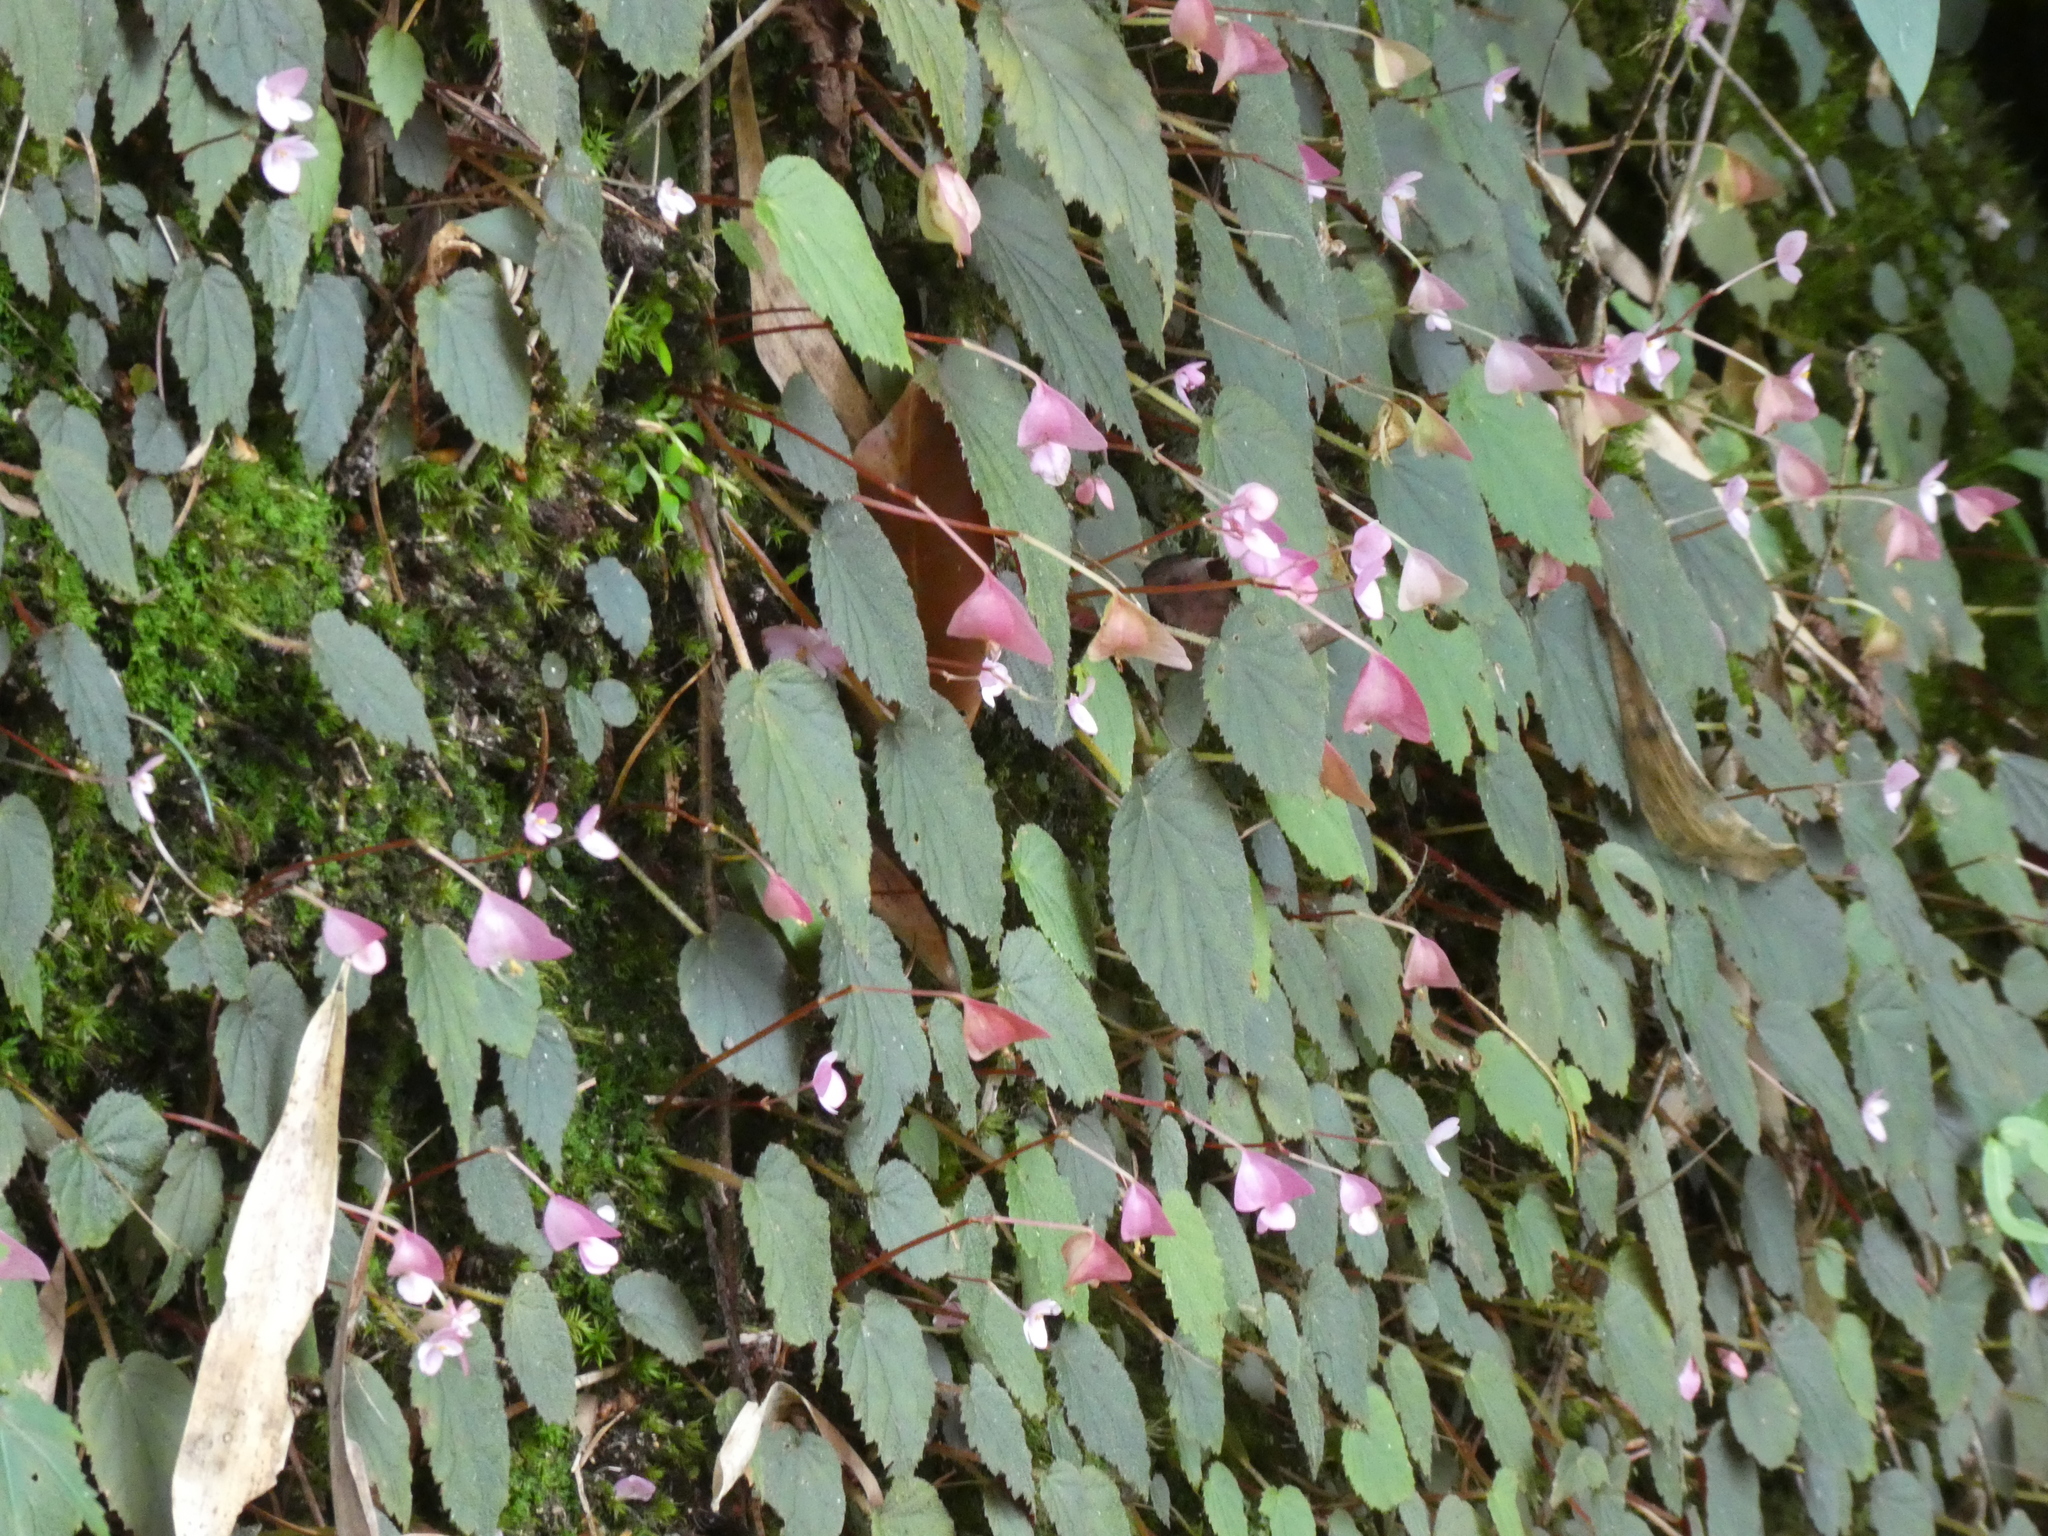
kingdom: Plantae
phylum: Tracheophyta
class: Magnoliopsida
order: Cucurbitales
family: Begoniaceae
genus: Begonia
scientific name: Begonia fimbristipula
